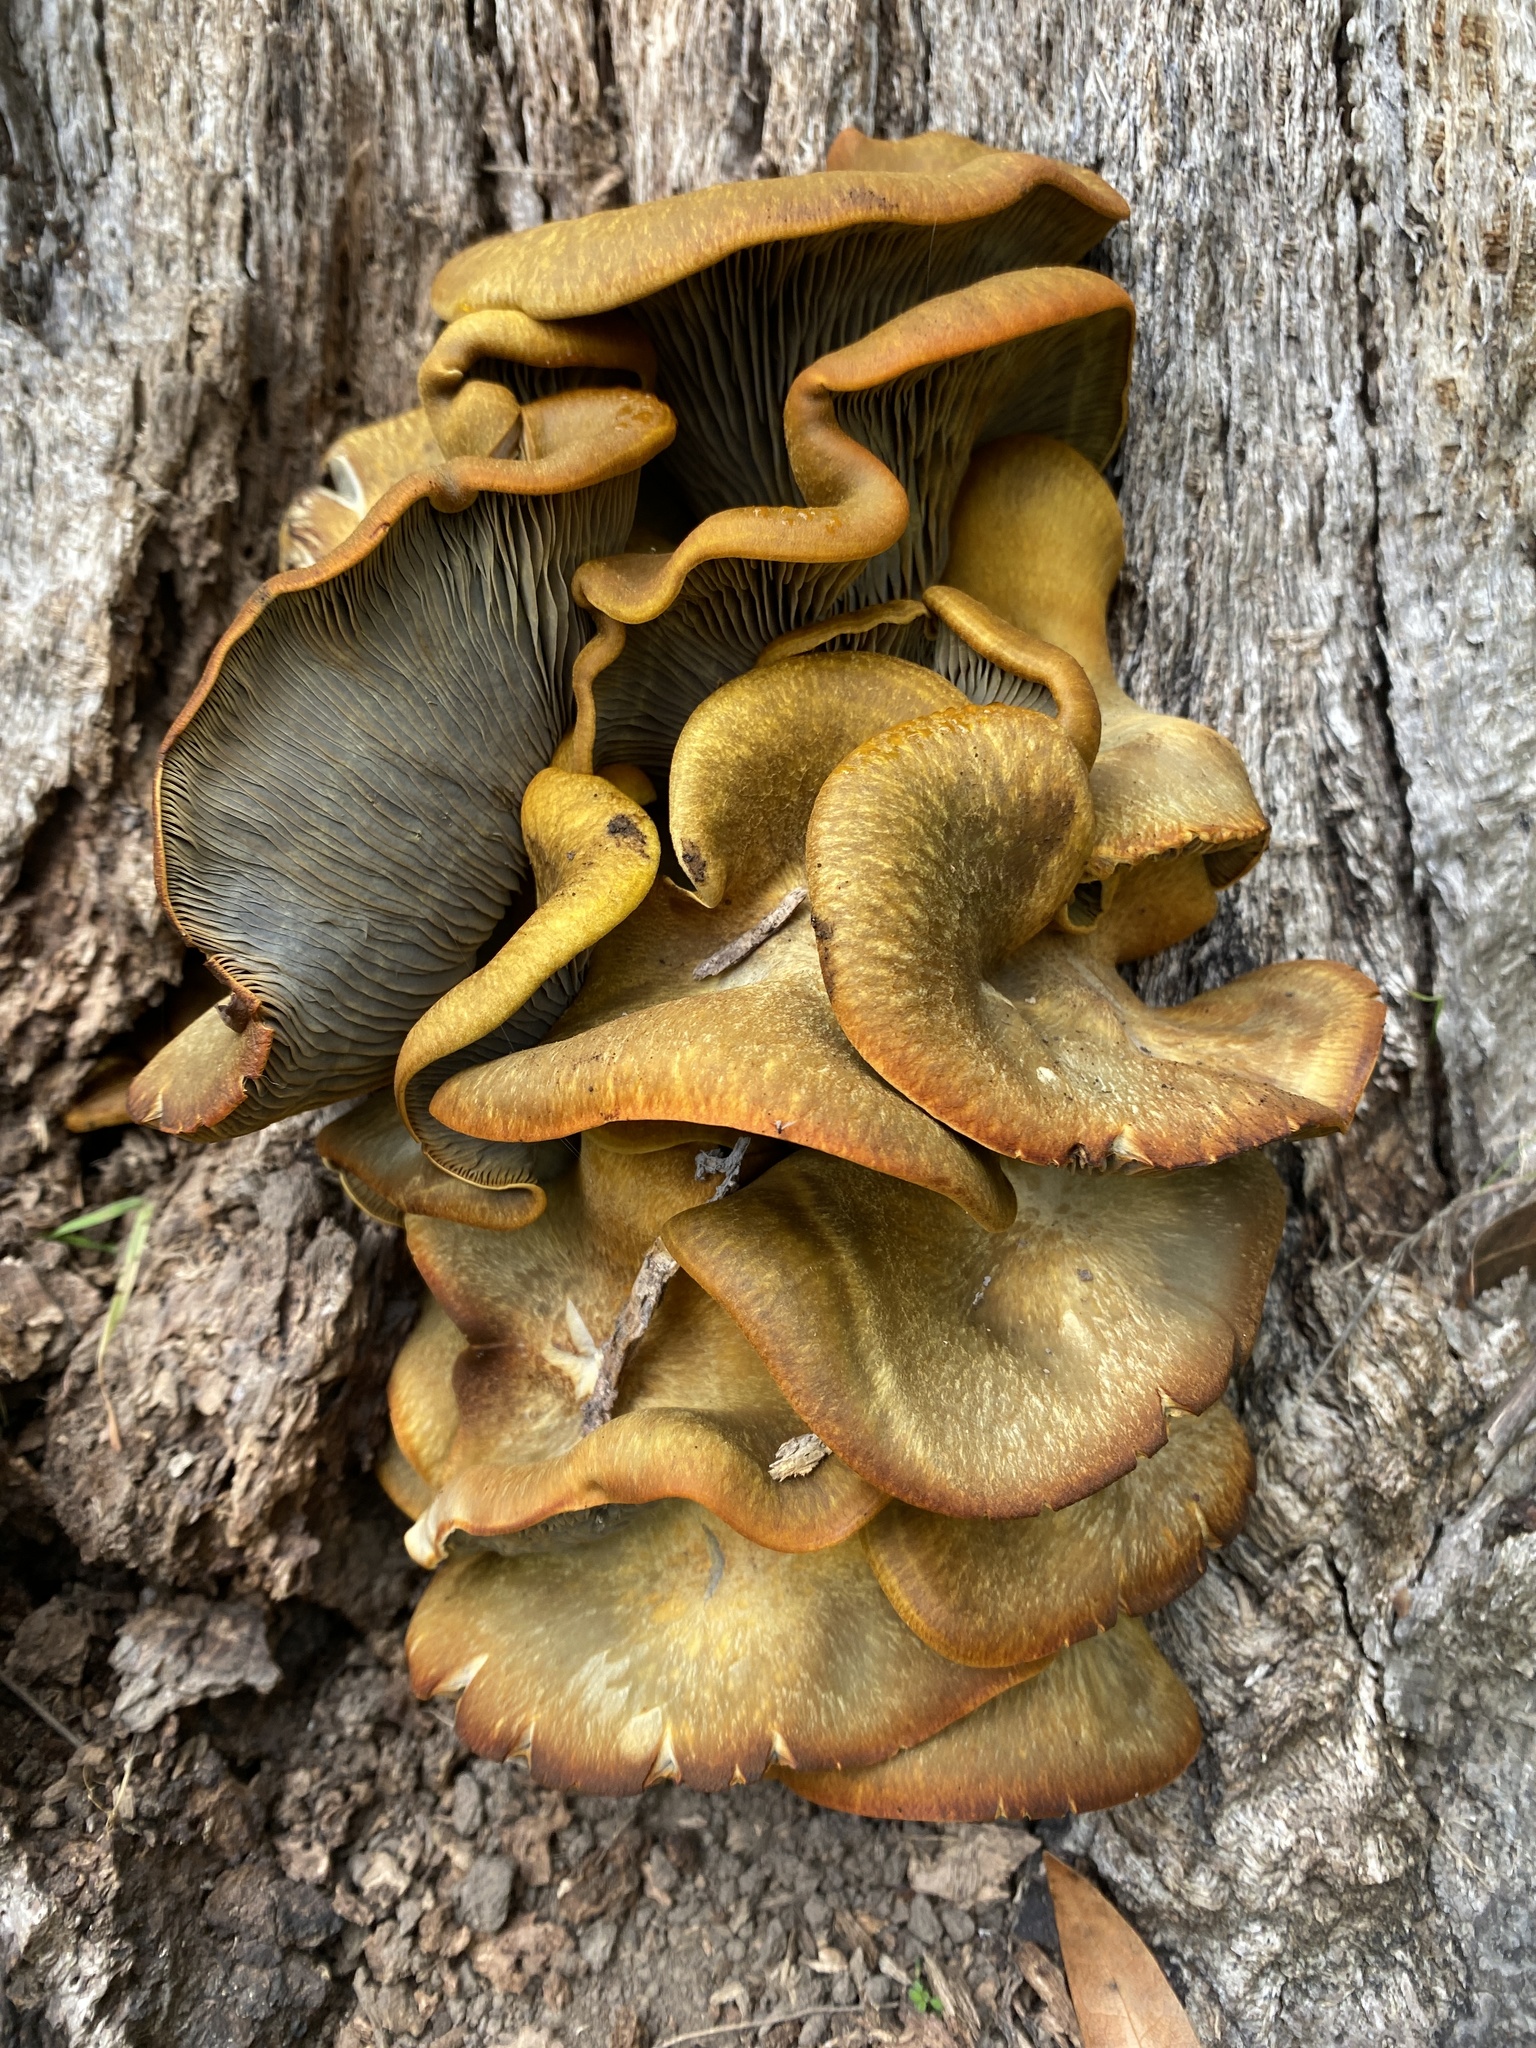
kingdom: Fungi
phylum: Basidiomycota
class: Agaricomycetes
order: Agaricales
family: Omphalotaceae
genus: Omphalotus
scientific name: Omphalotus olivascens
